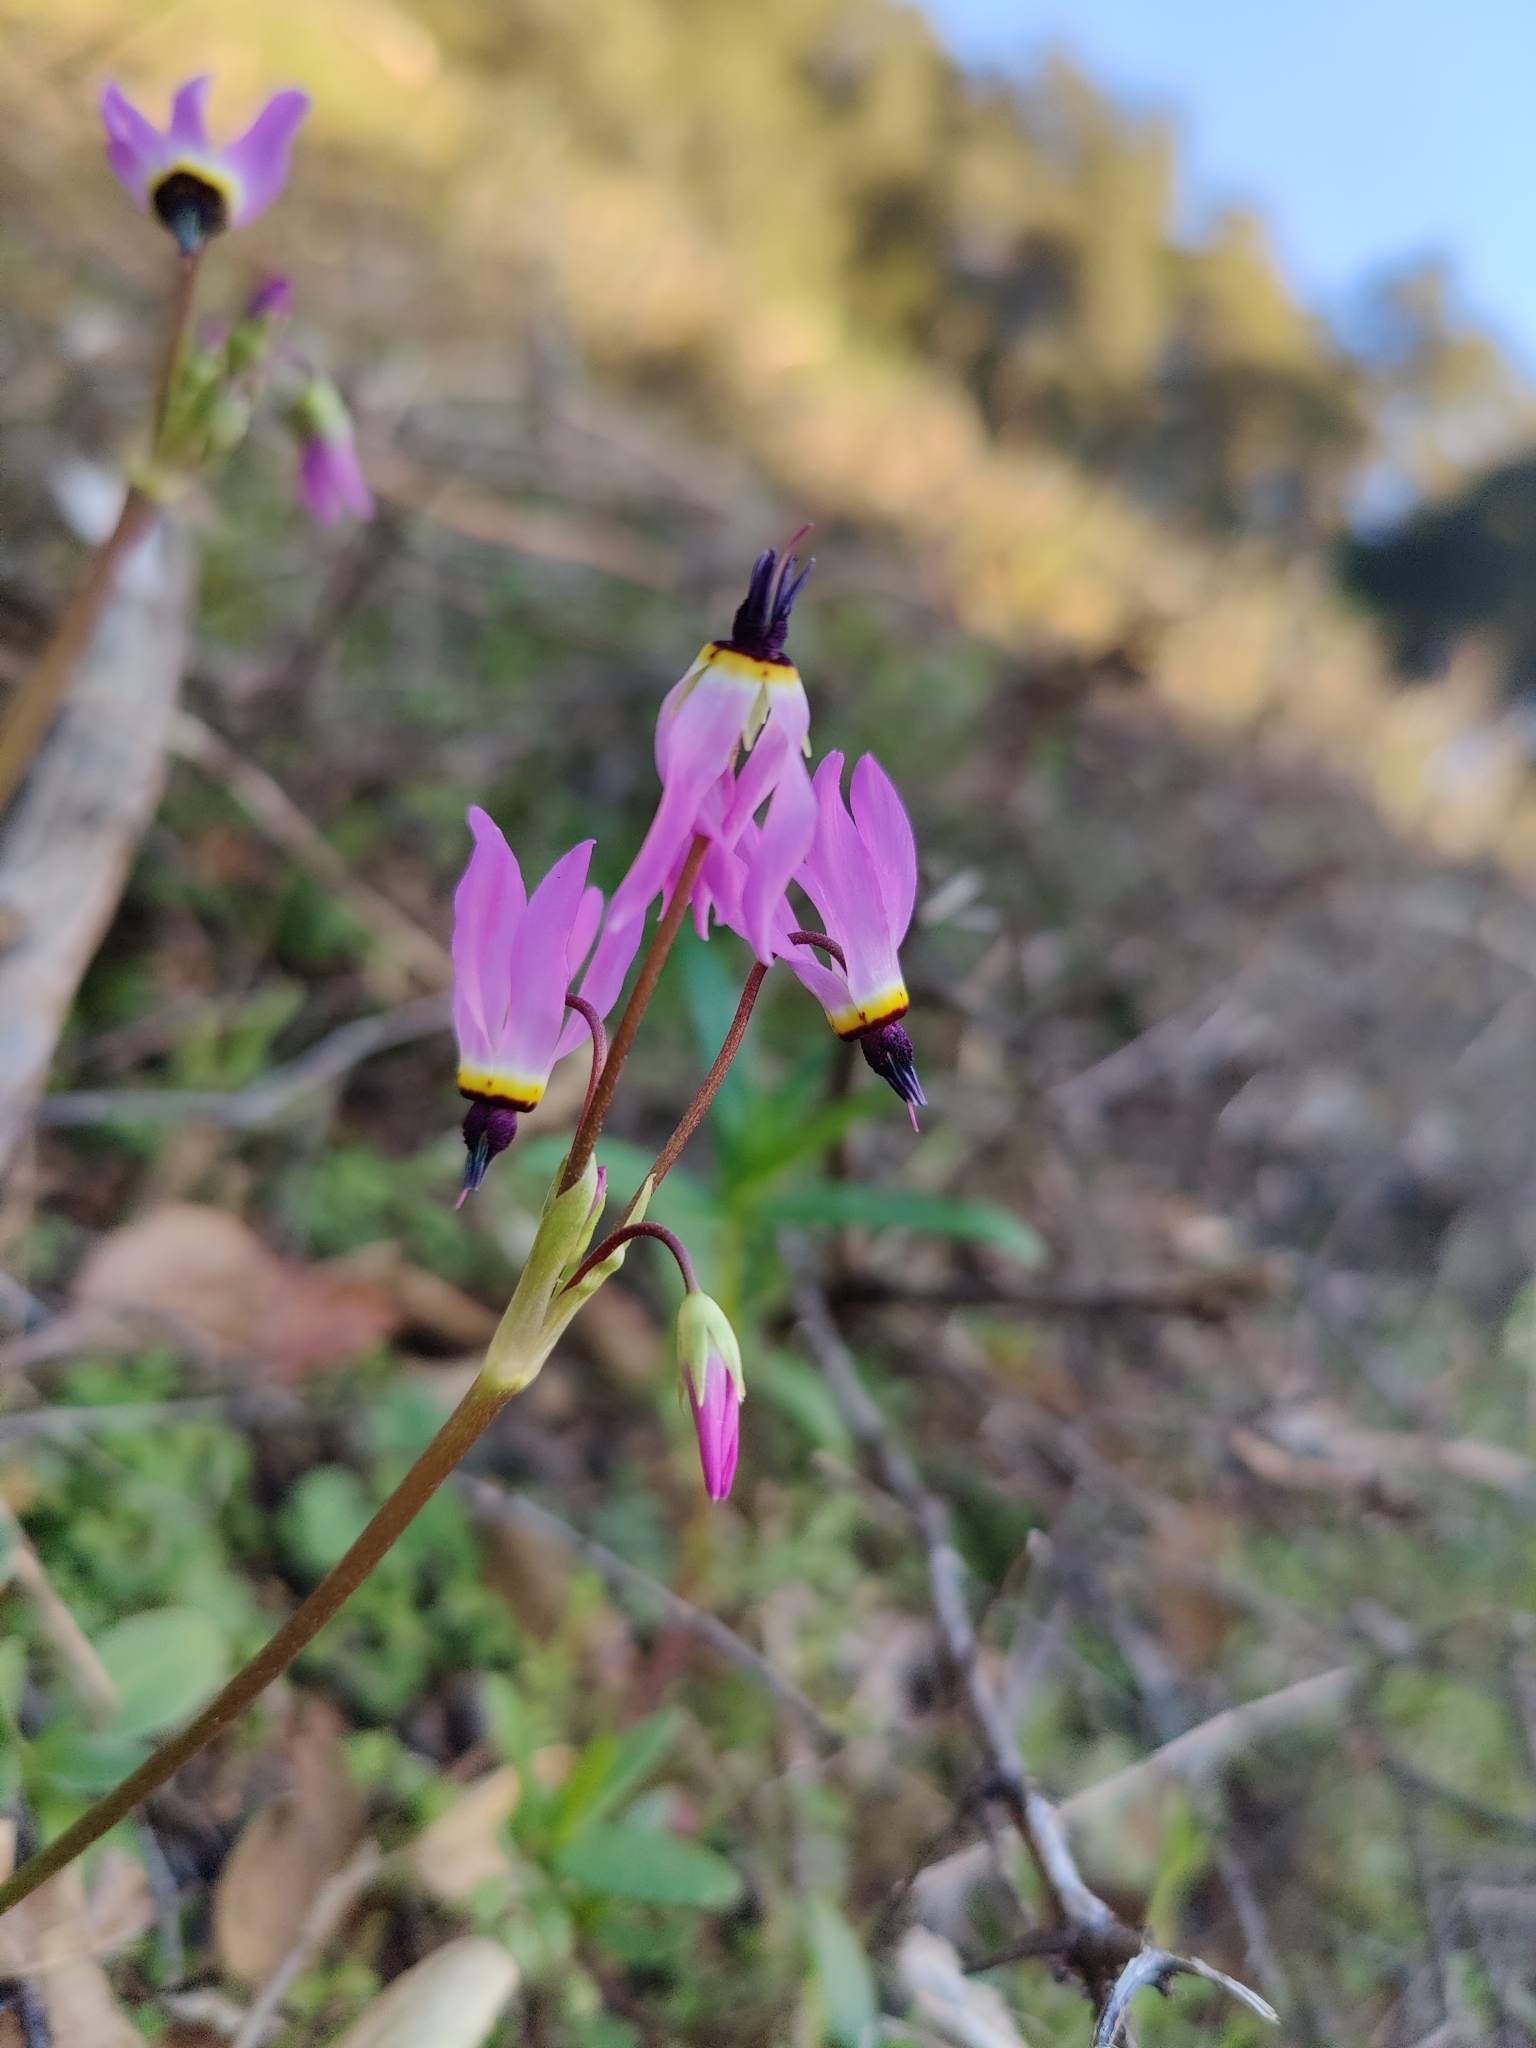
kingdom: Plantae
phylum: Tracheophyta
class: Magnoliopsida
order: Ericales
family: Primulaceae
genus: Dodecatheon
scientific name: Dodecatheon clevelandii
